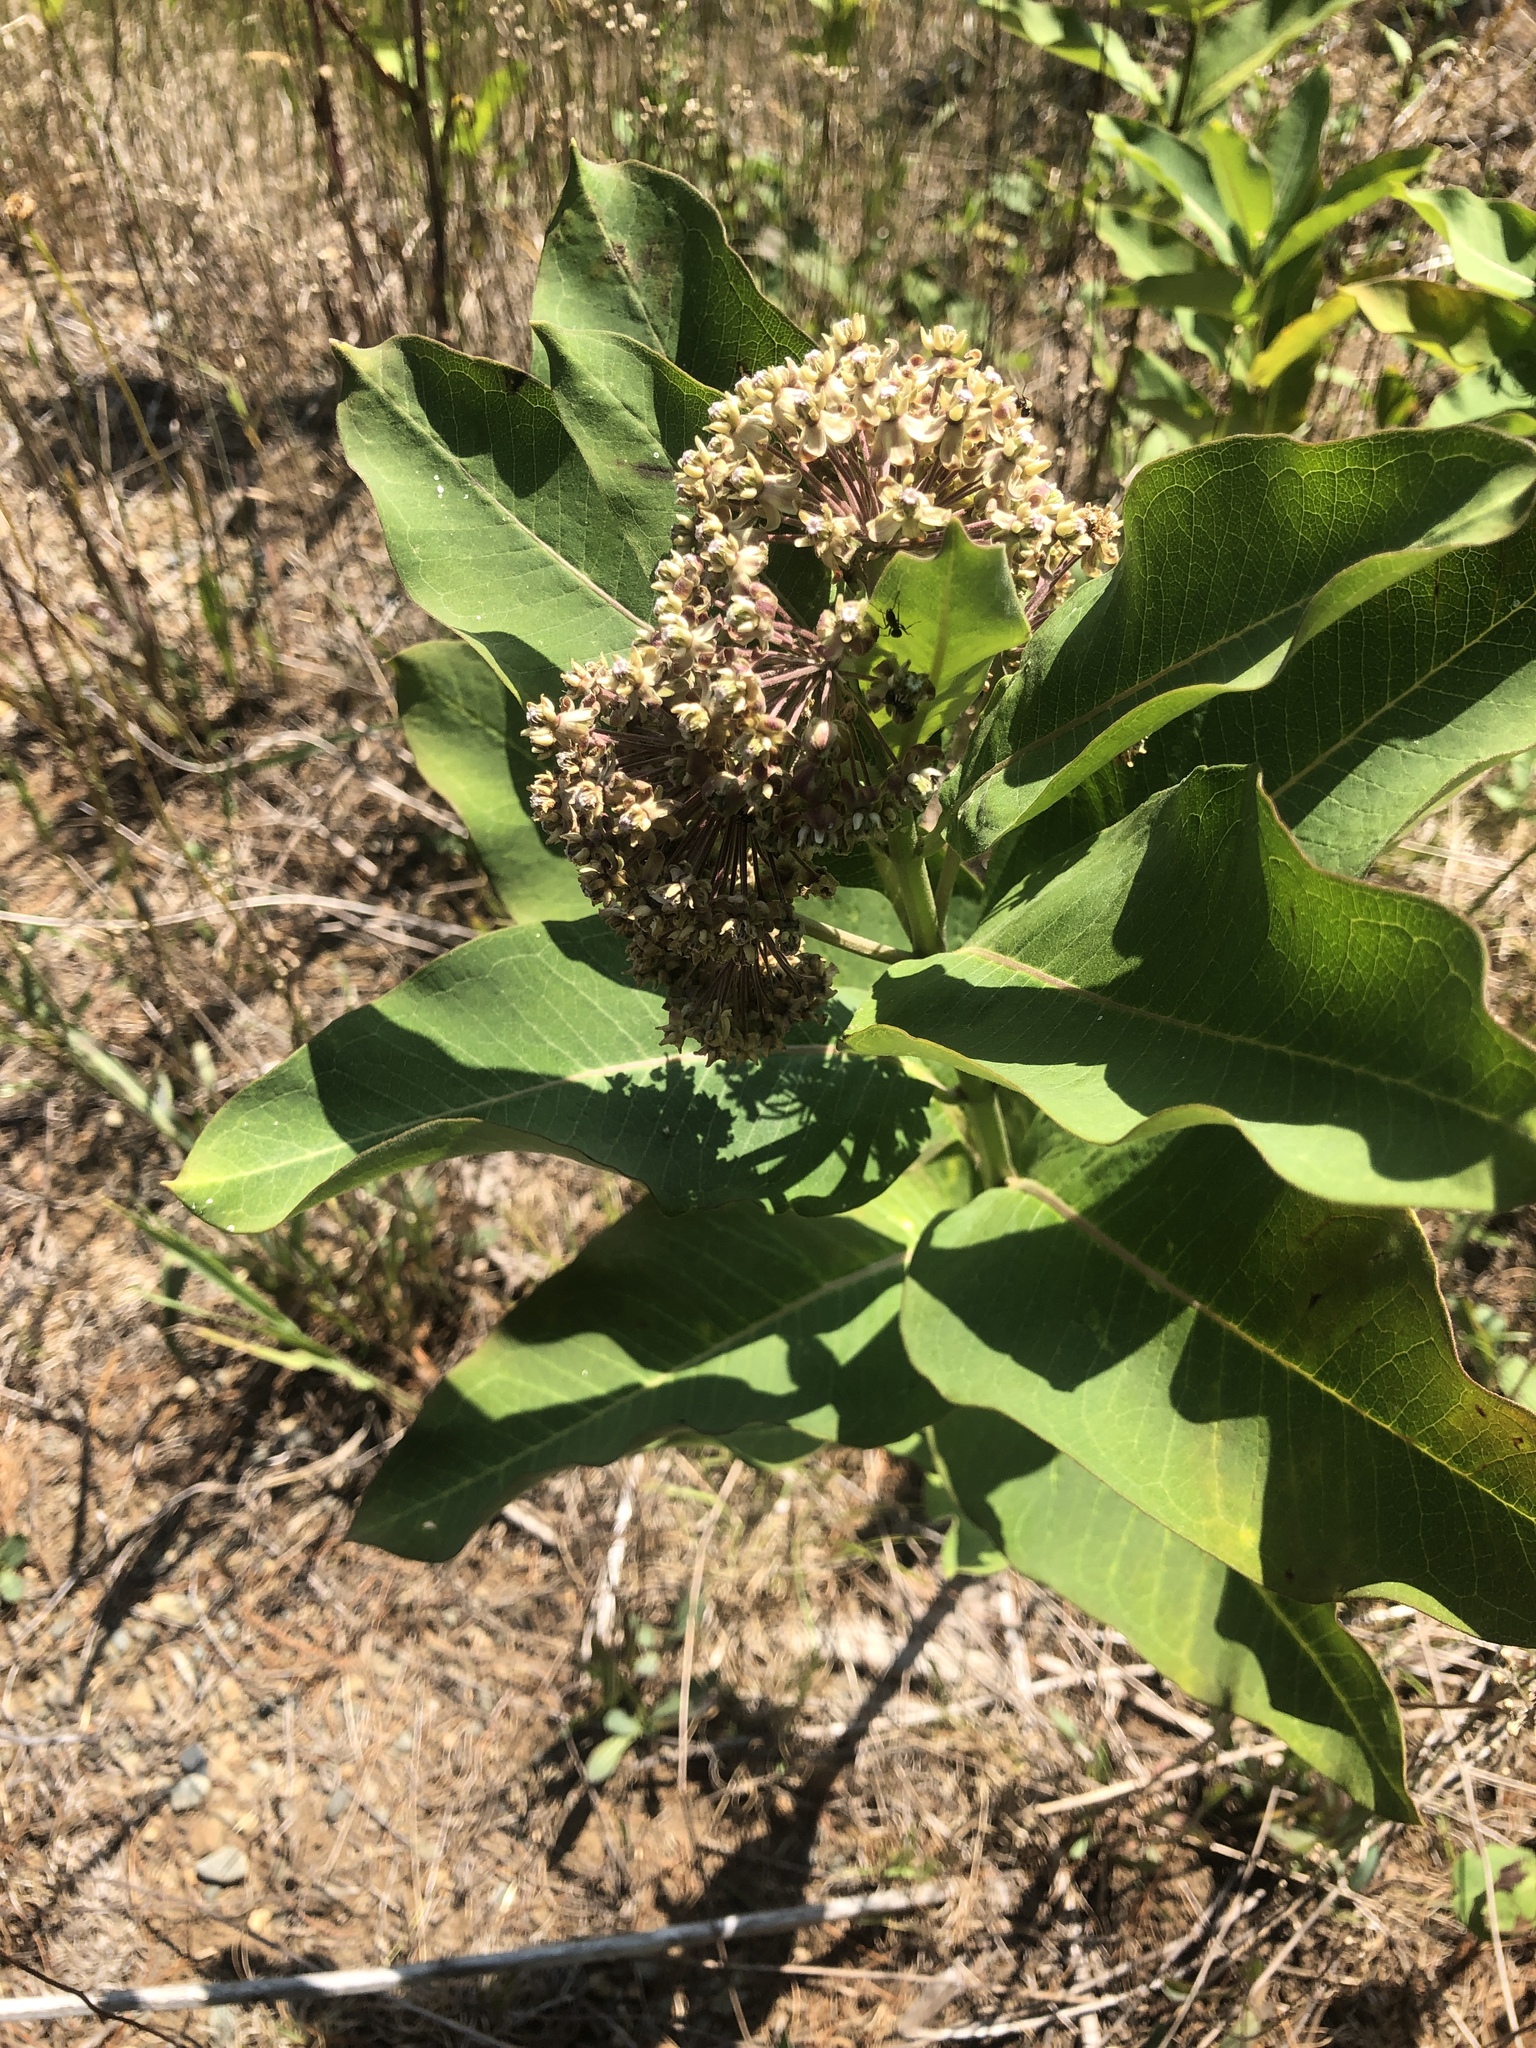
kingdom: Plantae
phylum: Tracheophyta
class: Magnoliopsida
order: Gentianales
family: Apocynaceae
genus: Asclepias
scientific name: Asclepias syriaca
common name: Common milkweed
